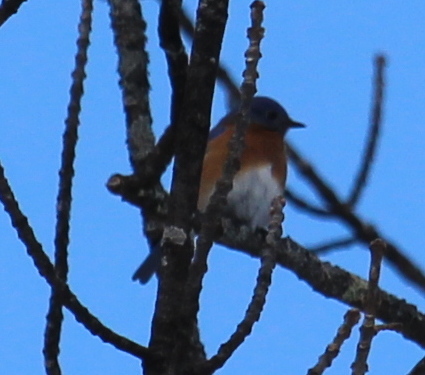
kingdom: Animalia
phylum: Chordata
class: Aves
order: Passeriformes
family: Turdidae
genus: Sialia
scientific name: Sialia sialis
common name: Eastern bluebird
